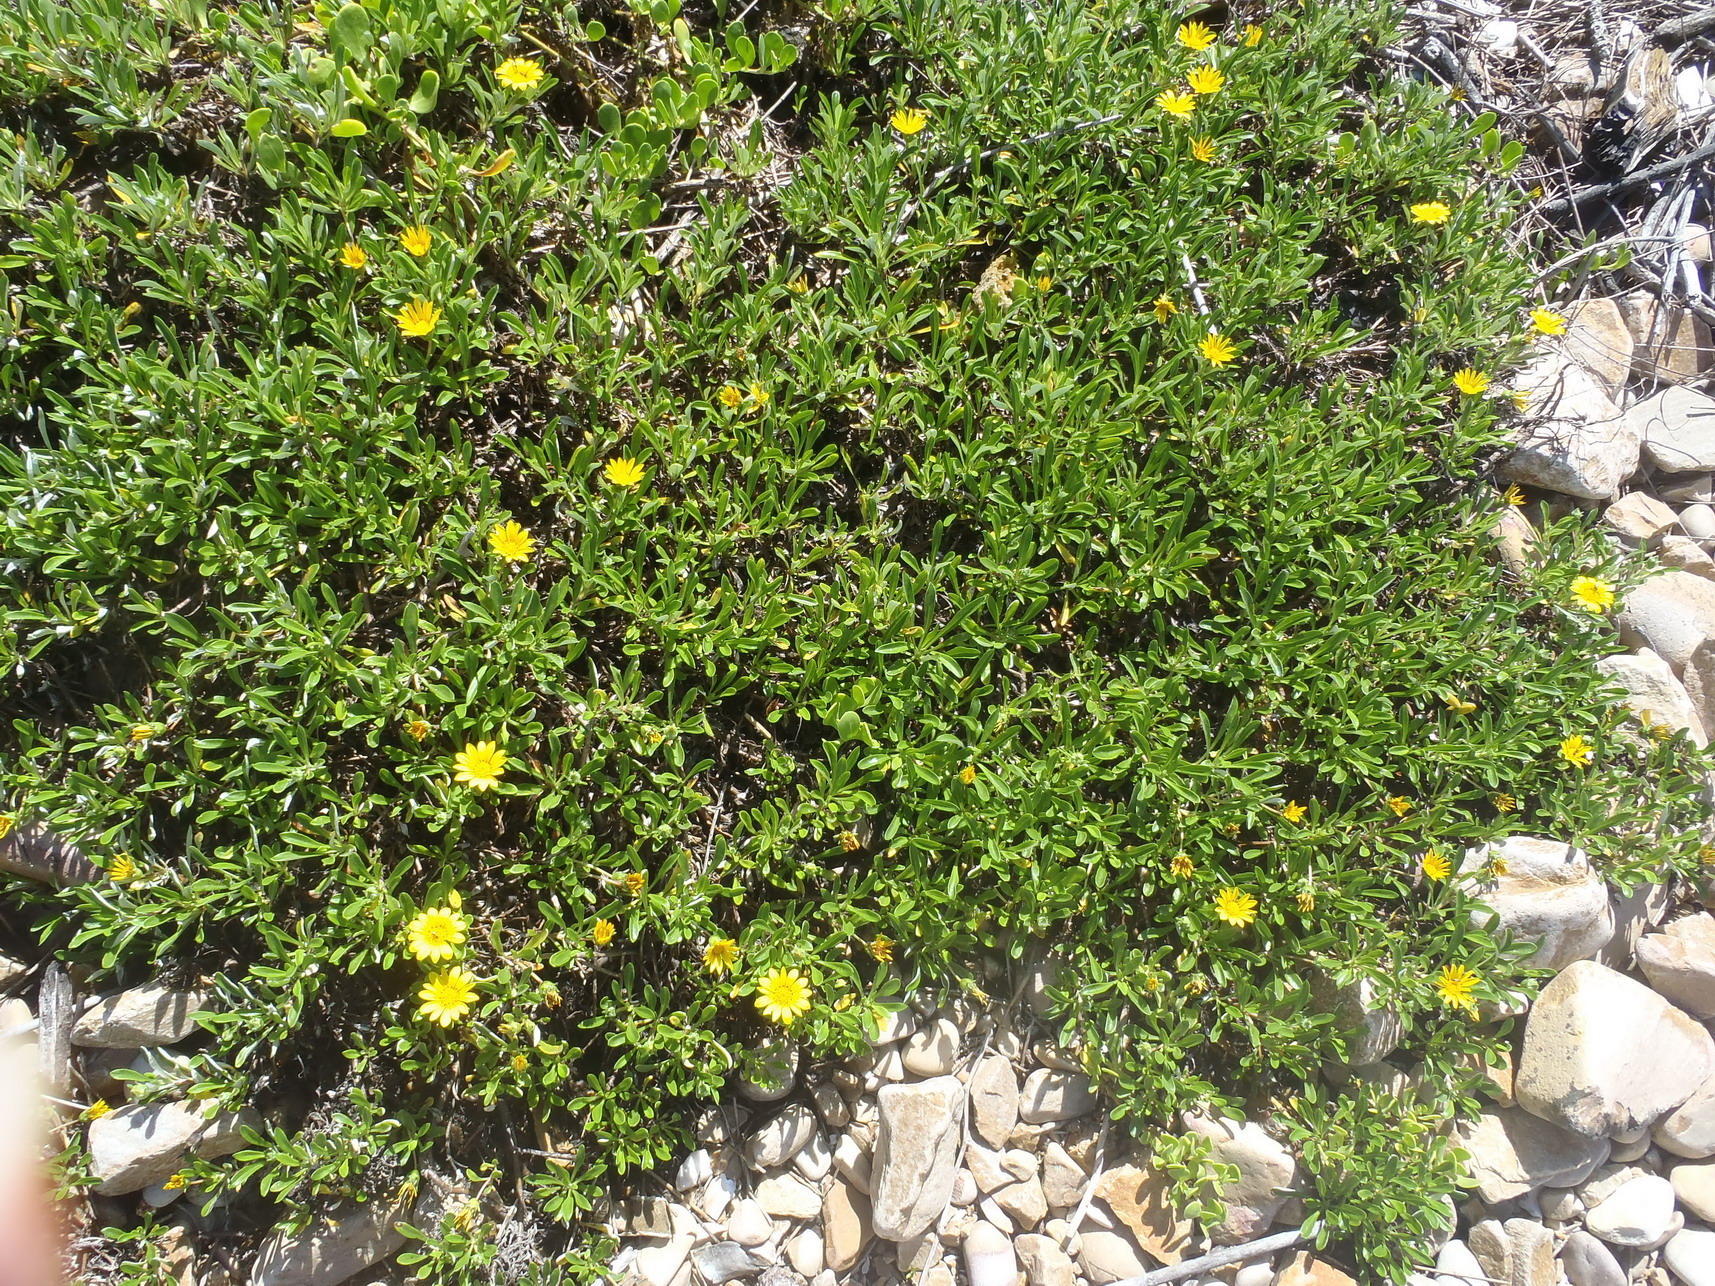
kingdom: Plantae
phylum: Tracheophyta
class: Magnoliopsida
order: Asterales
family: Asteraceae
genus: Gazania
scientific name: Gazania rigens
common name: Treasureflower
